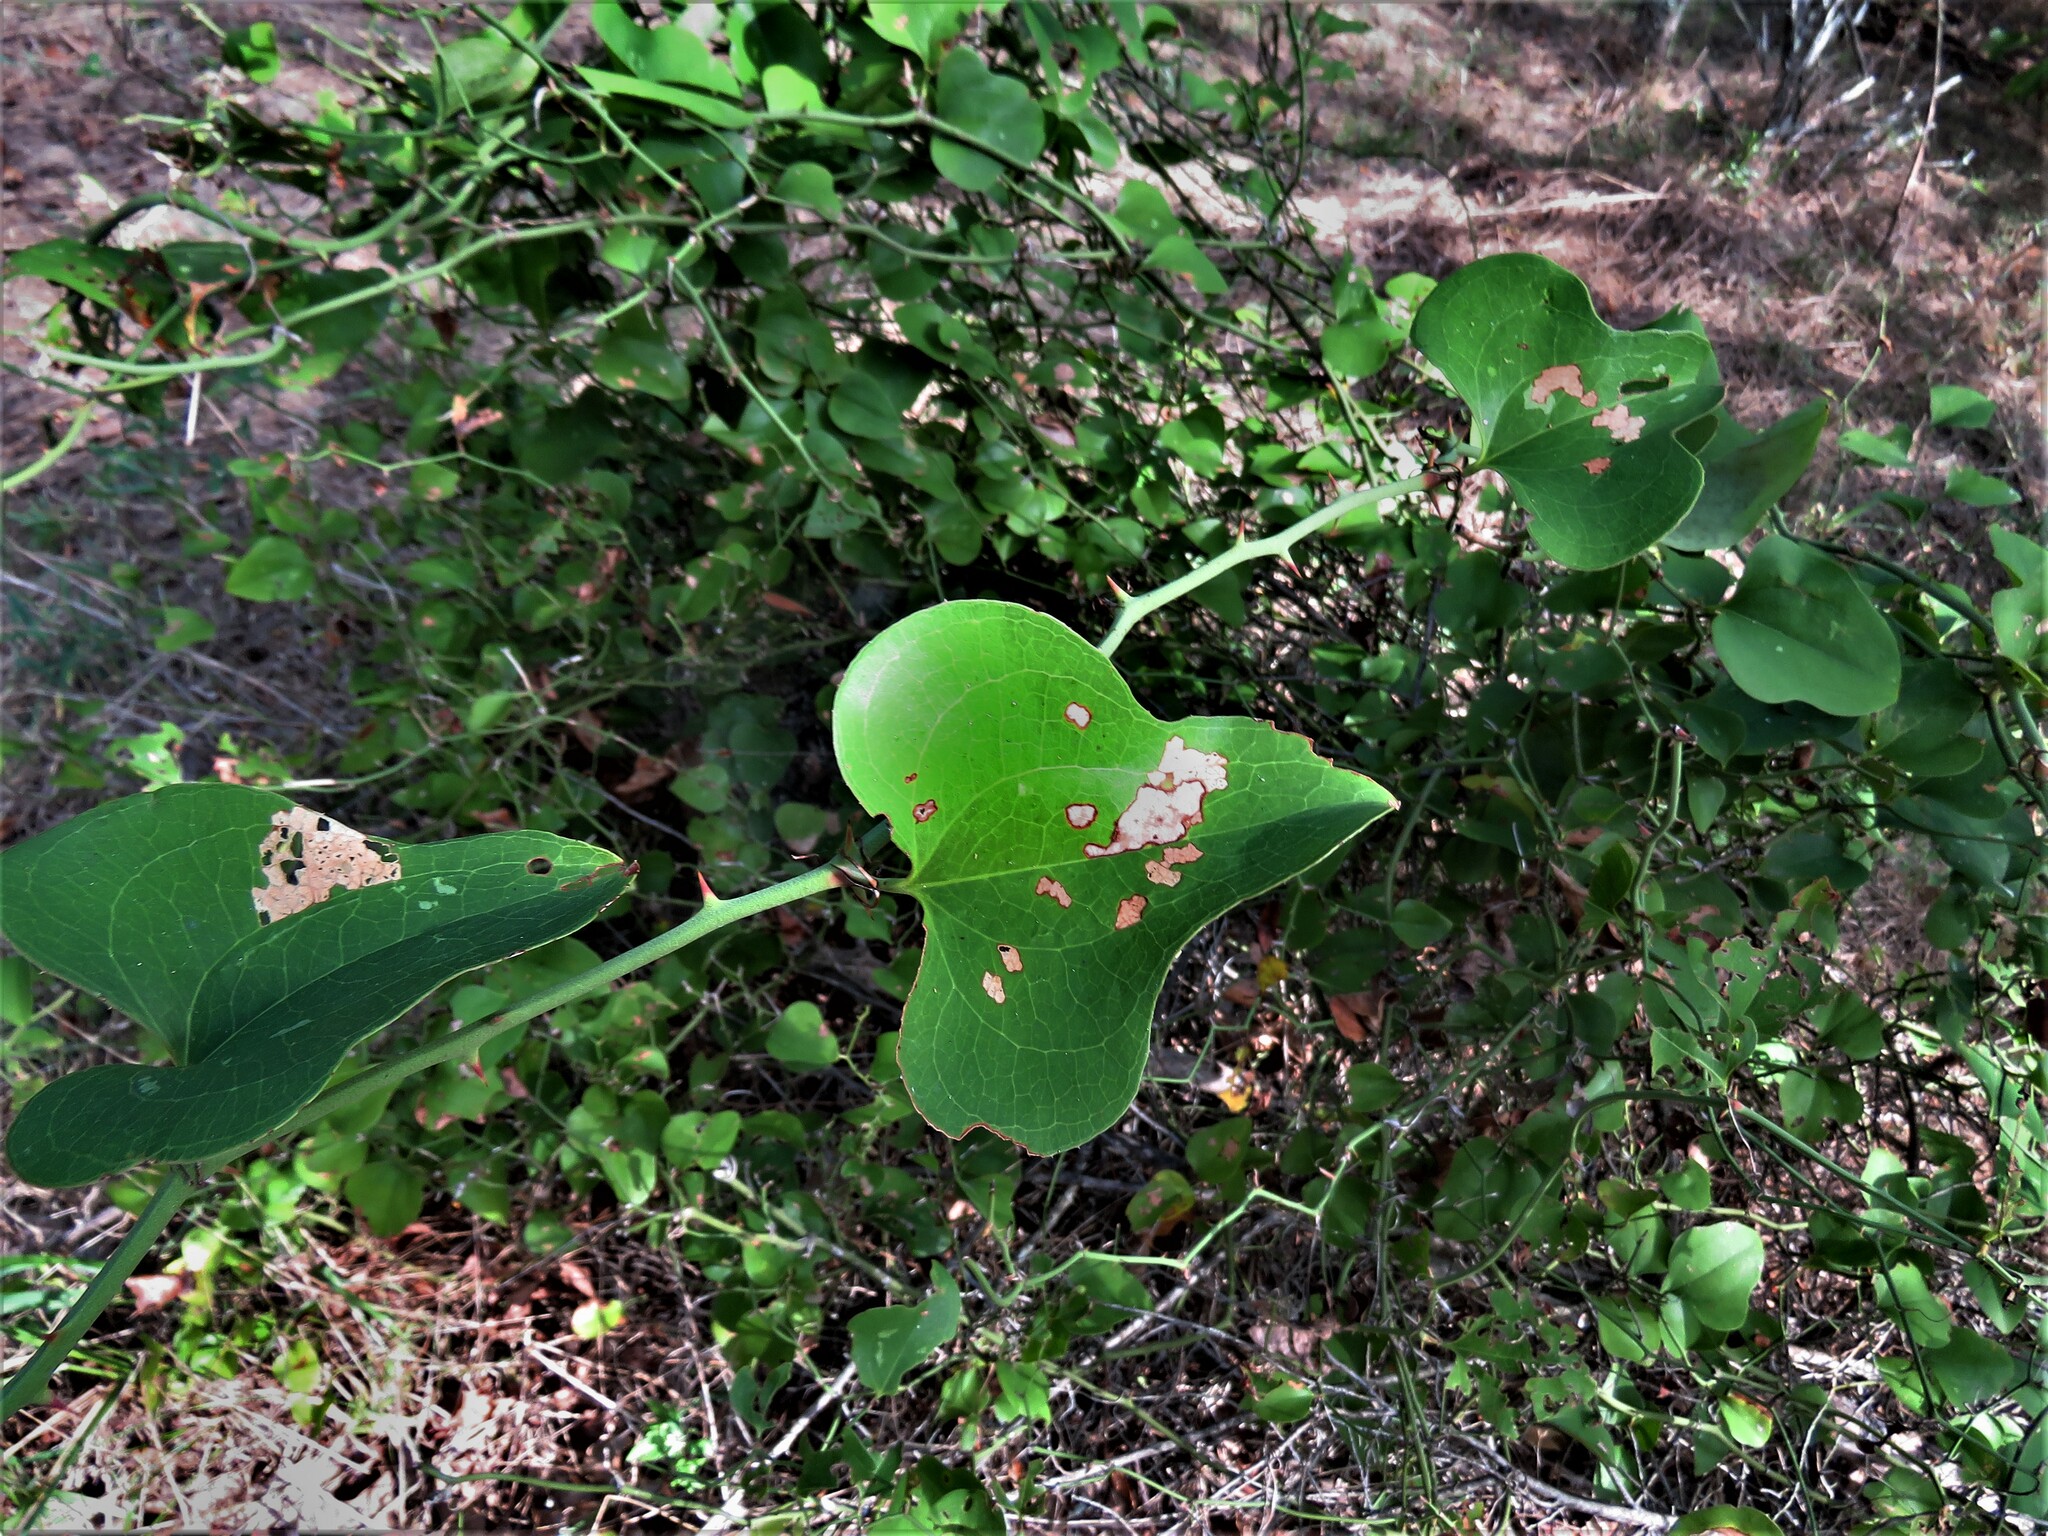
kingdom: Plantae
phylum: Tracheophyta
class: Liliopsida
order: Liliales
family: Smilacaceae
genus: Smilax
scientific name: Smilax bona-nox
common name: Catbrier
